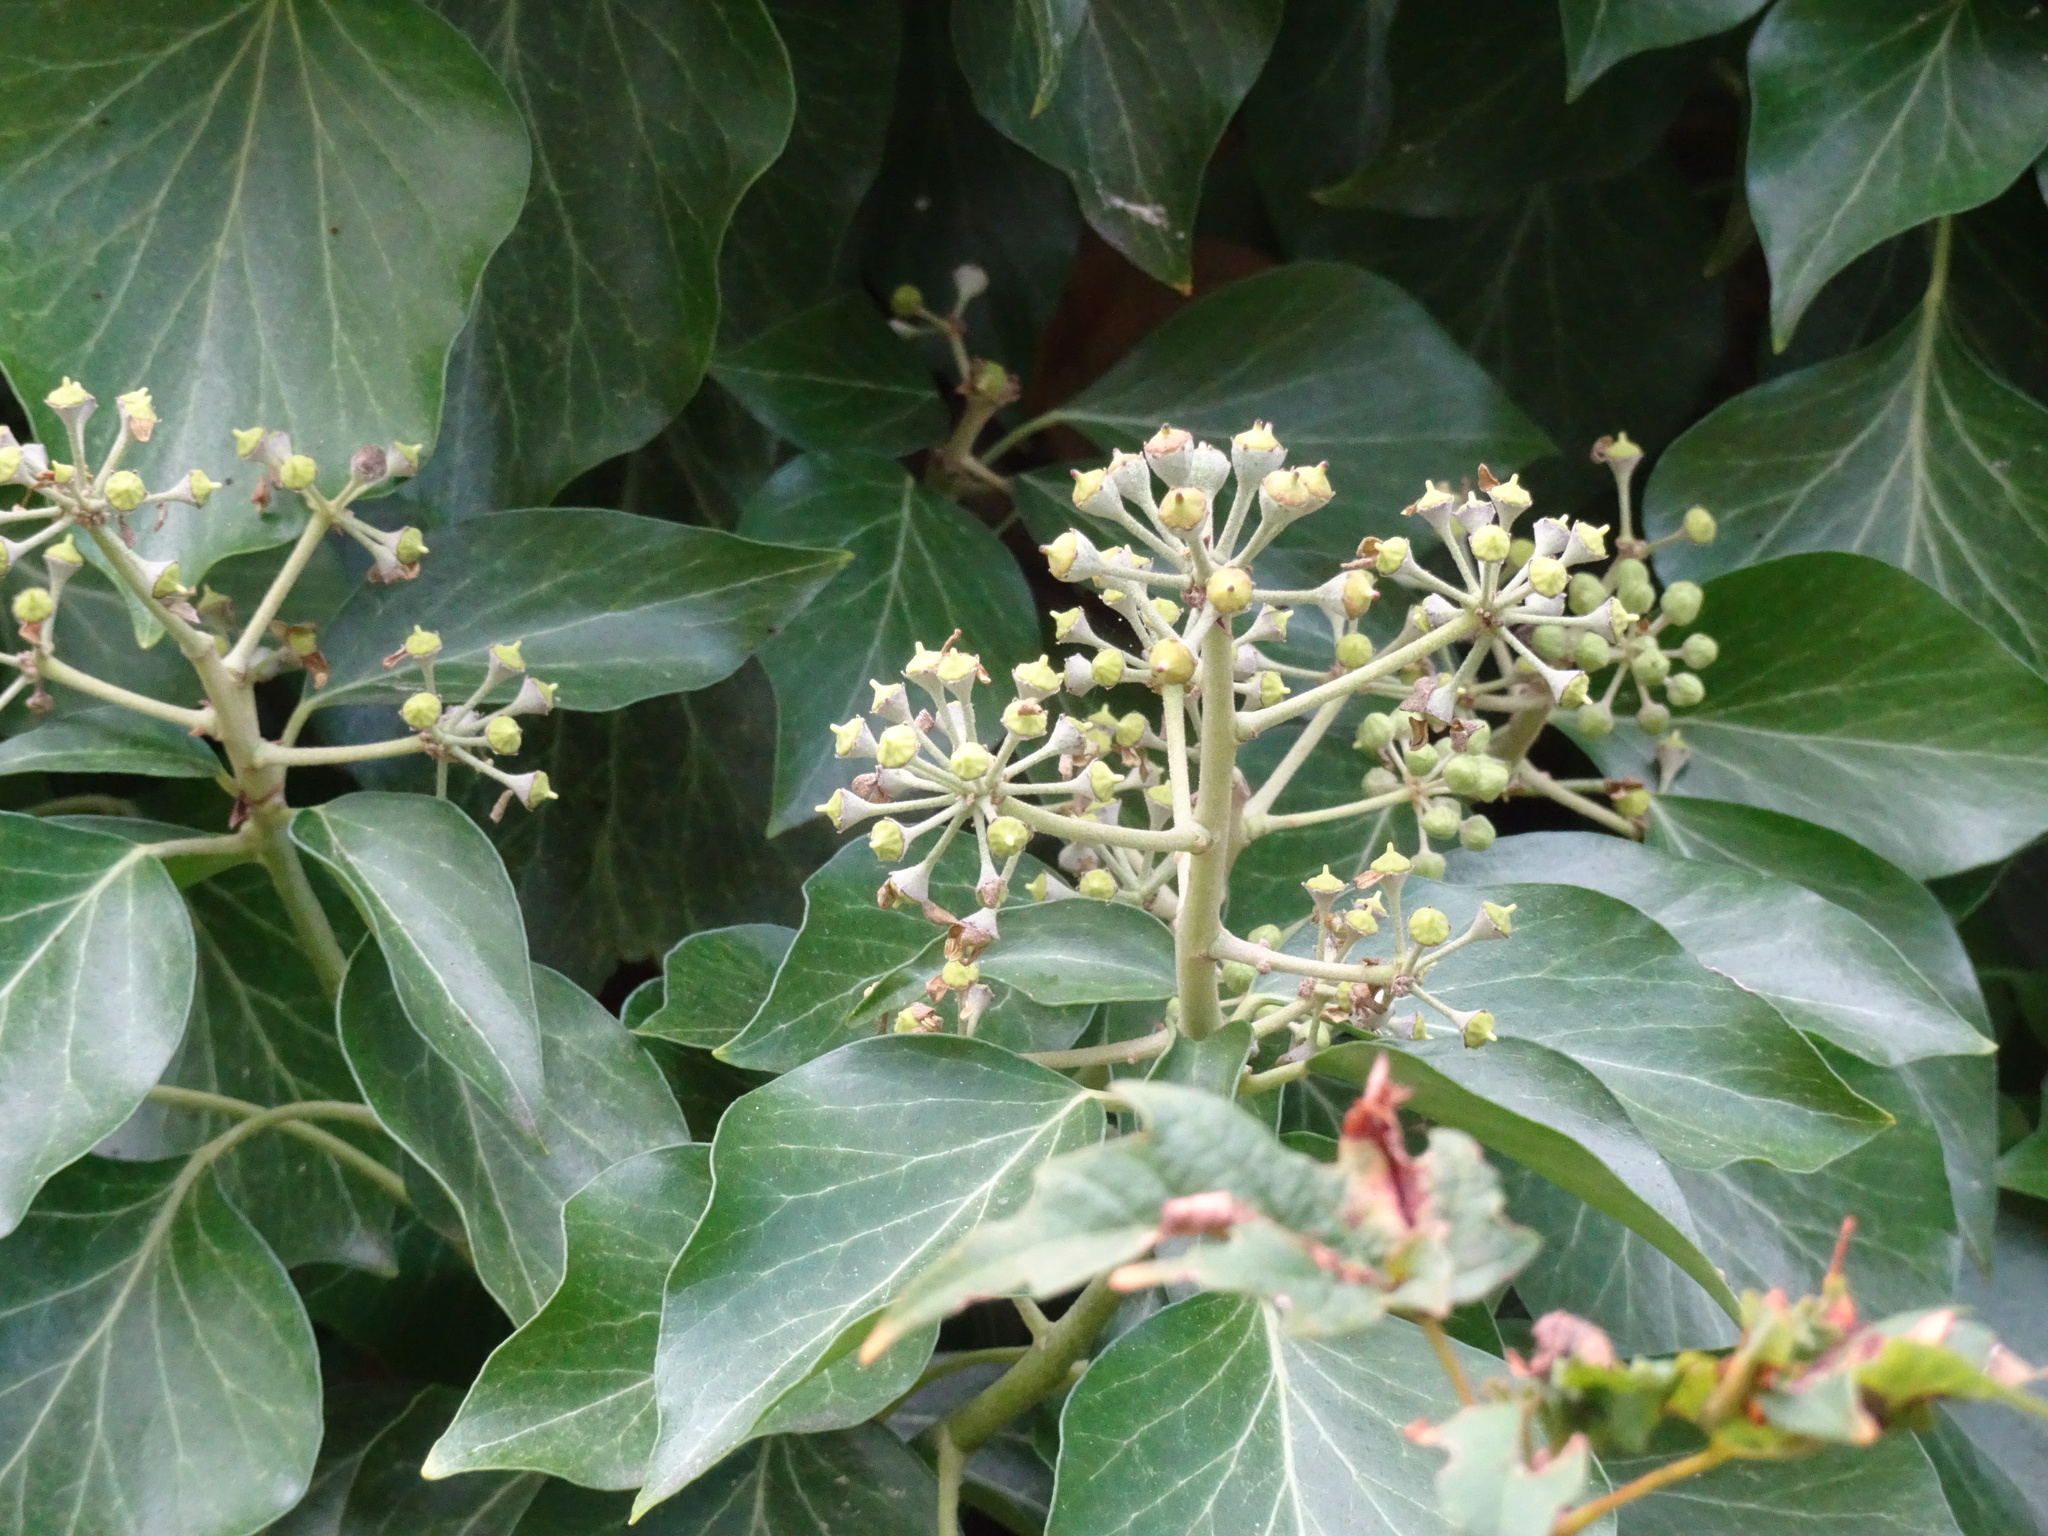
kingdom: Plantae
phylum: Tracheophyta
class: Magnoliopsida
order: Apiales
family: Araliaceae
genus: Hedera
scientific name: Hedera helix
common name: Ivy
